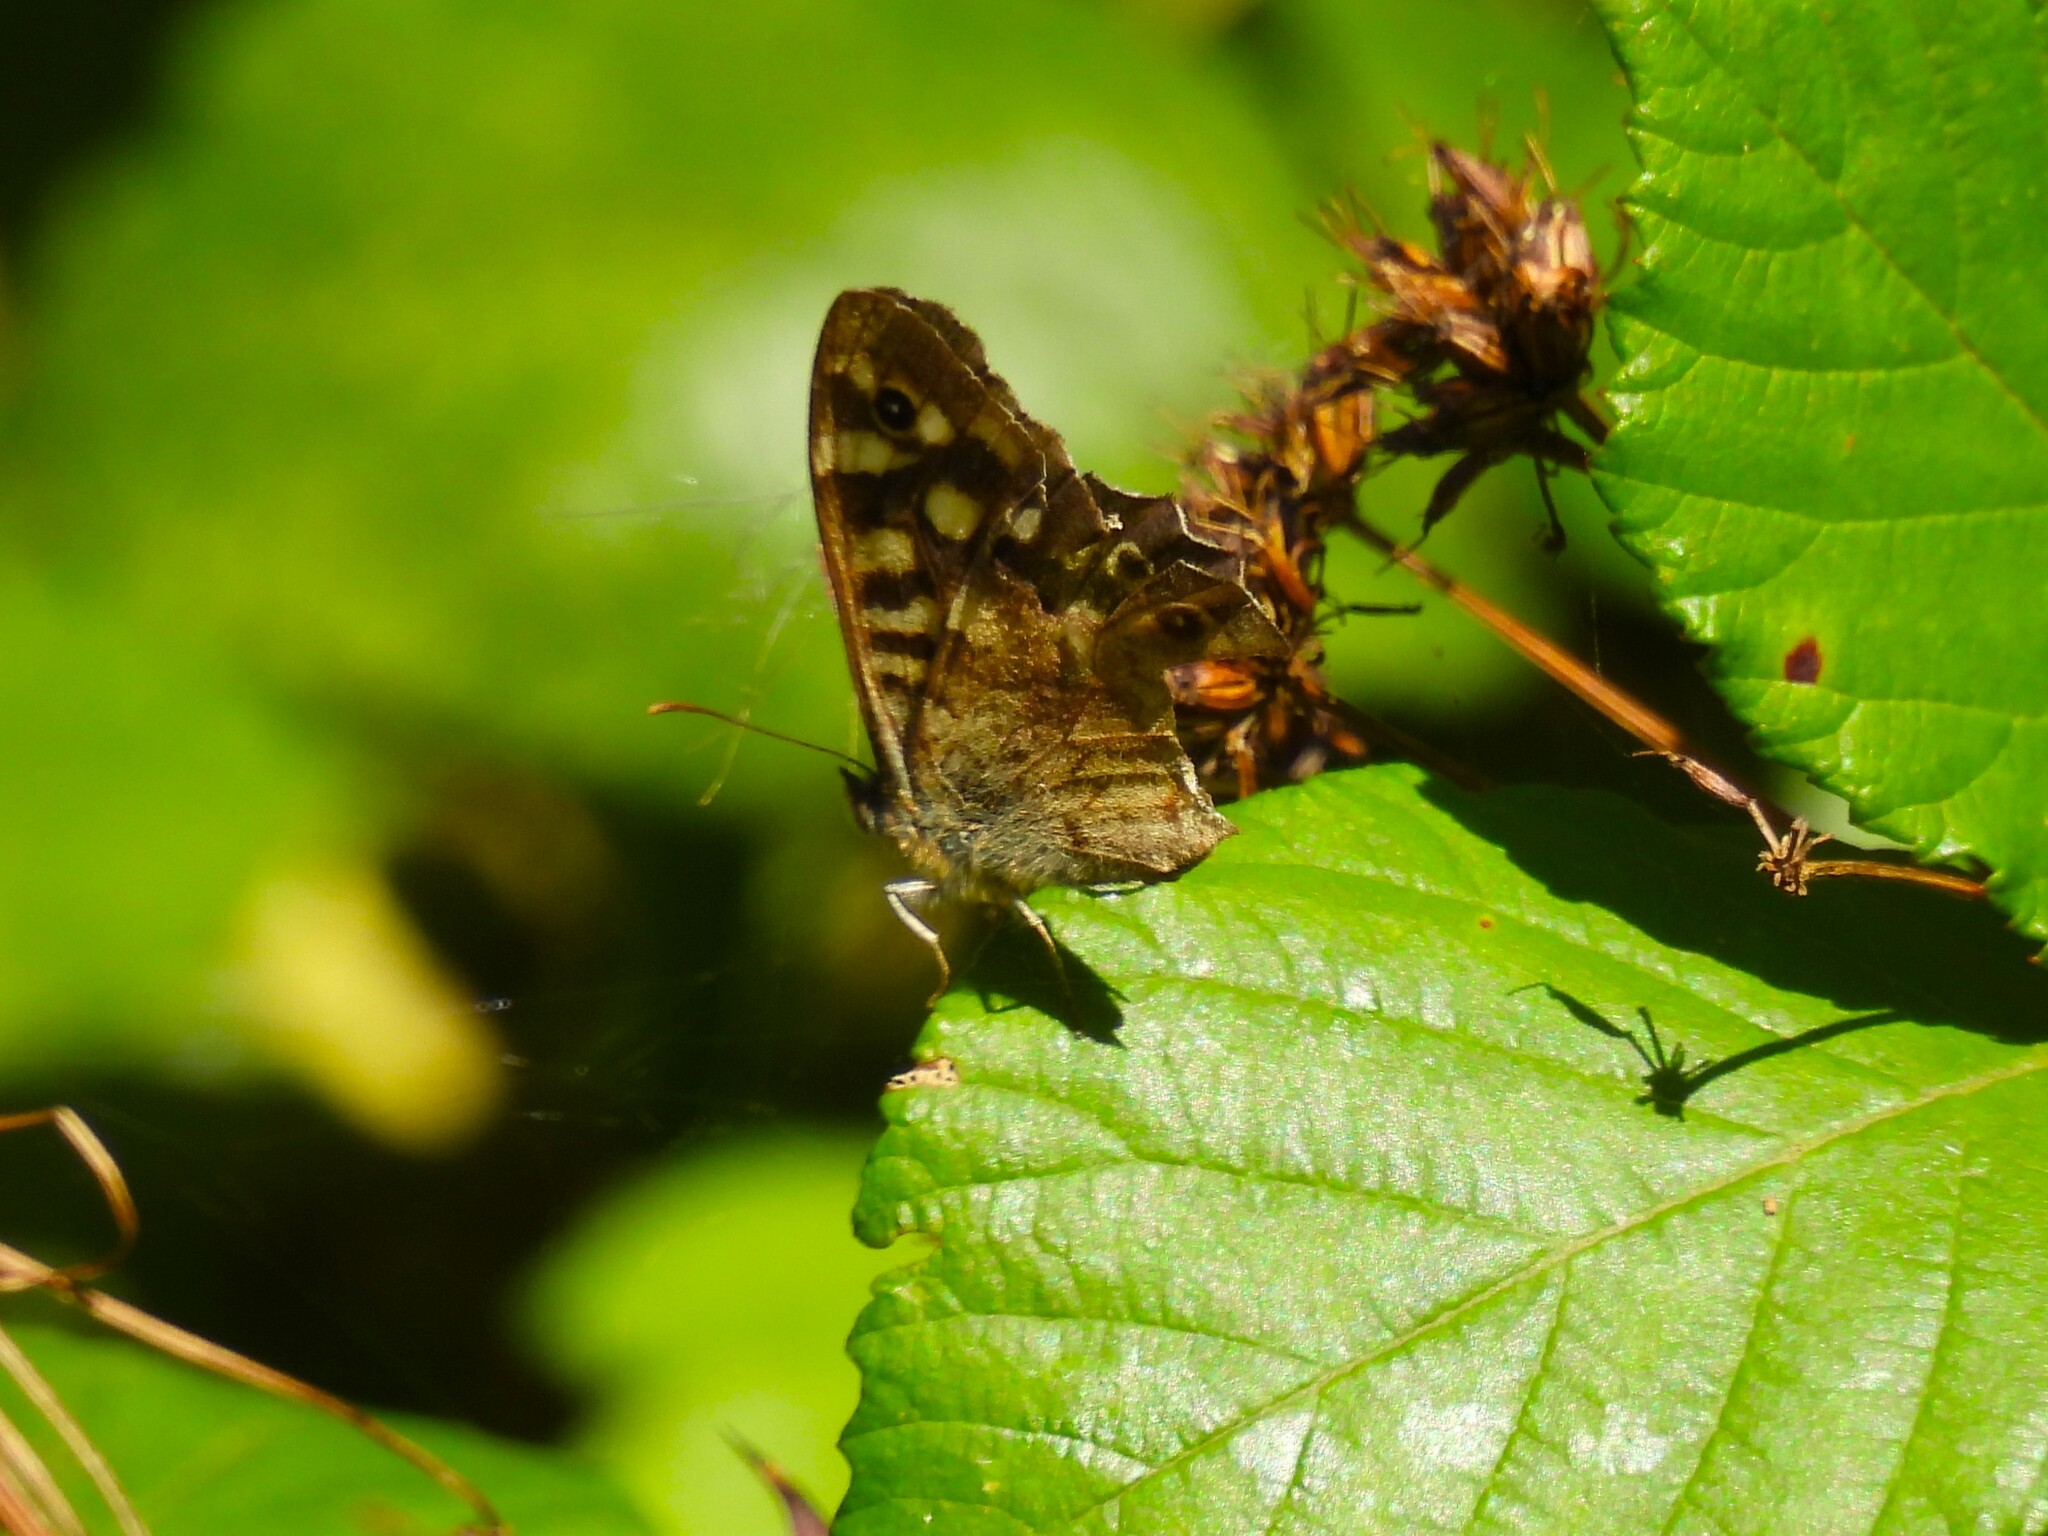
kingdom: Animalia
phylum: Arthropoda
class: Insecta
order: Lepidoptera
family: Nymphalidae
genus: Pararge
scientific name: Pararge aegeria
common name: Speckled wood
